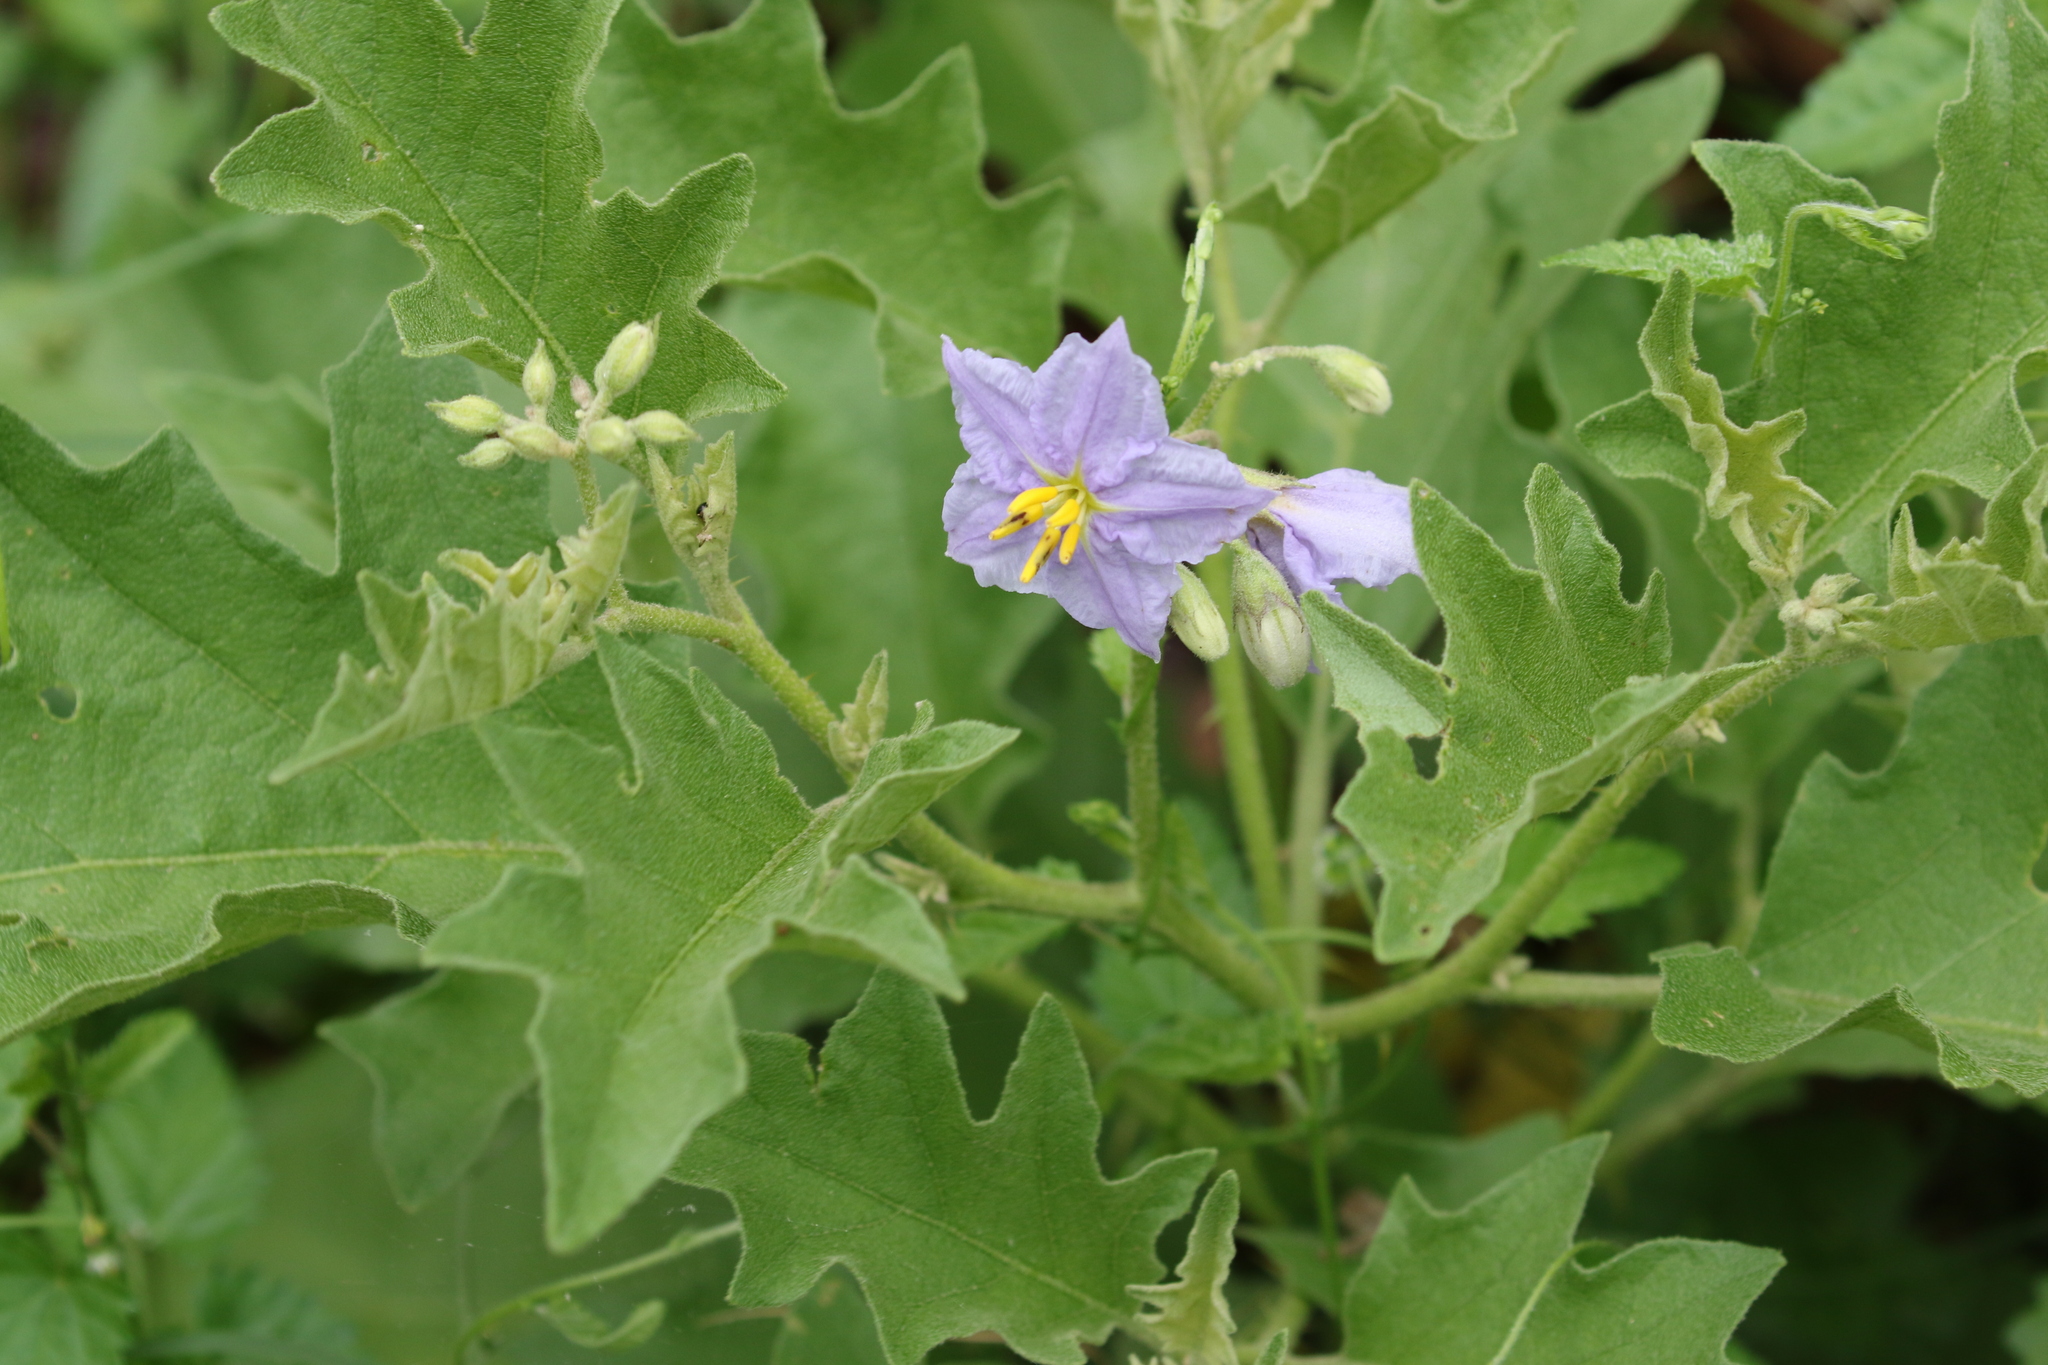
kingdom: Plantae
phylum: Tracheophyta
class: Magnoliopsida
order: Solanales
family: Solanaceae
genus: Solanum
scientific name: Solanum dimidiatum
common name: Carolina horse-nettle
